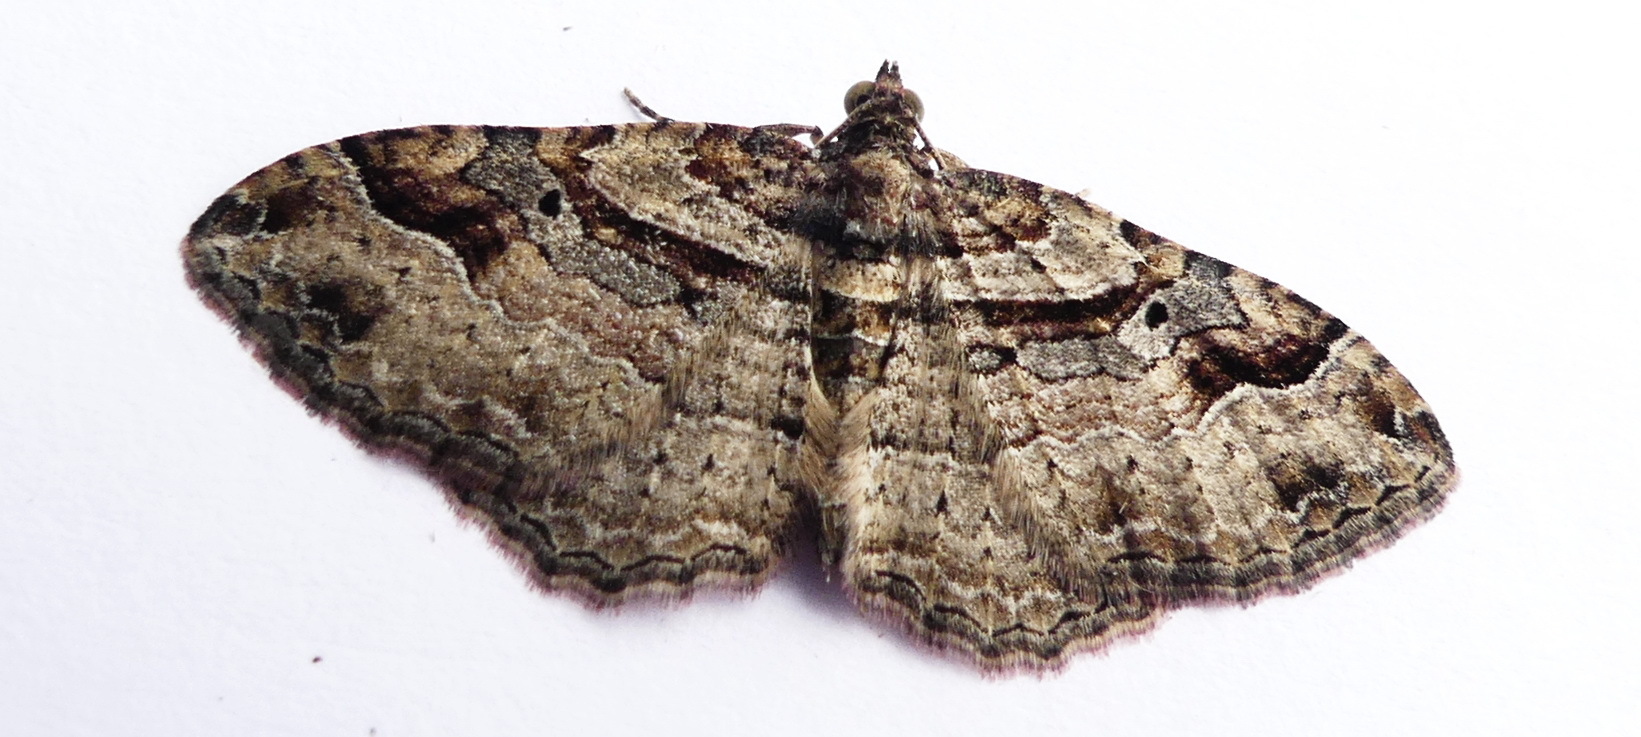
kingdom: Animalia
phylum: Arthropoda
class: Insecta
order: Lepidoptera
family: Geometridae
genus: Costaconvexa
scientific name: Costaconvexa centrostrigaria
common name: Bent-line carpet
